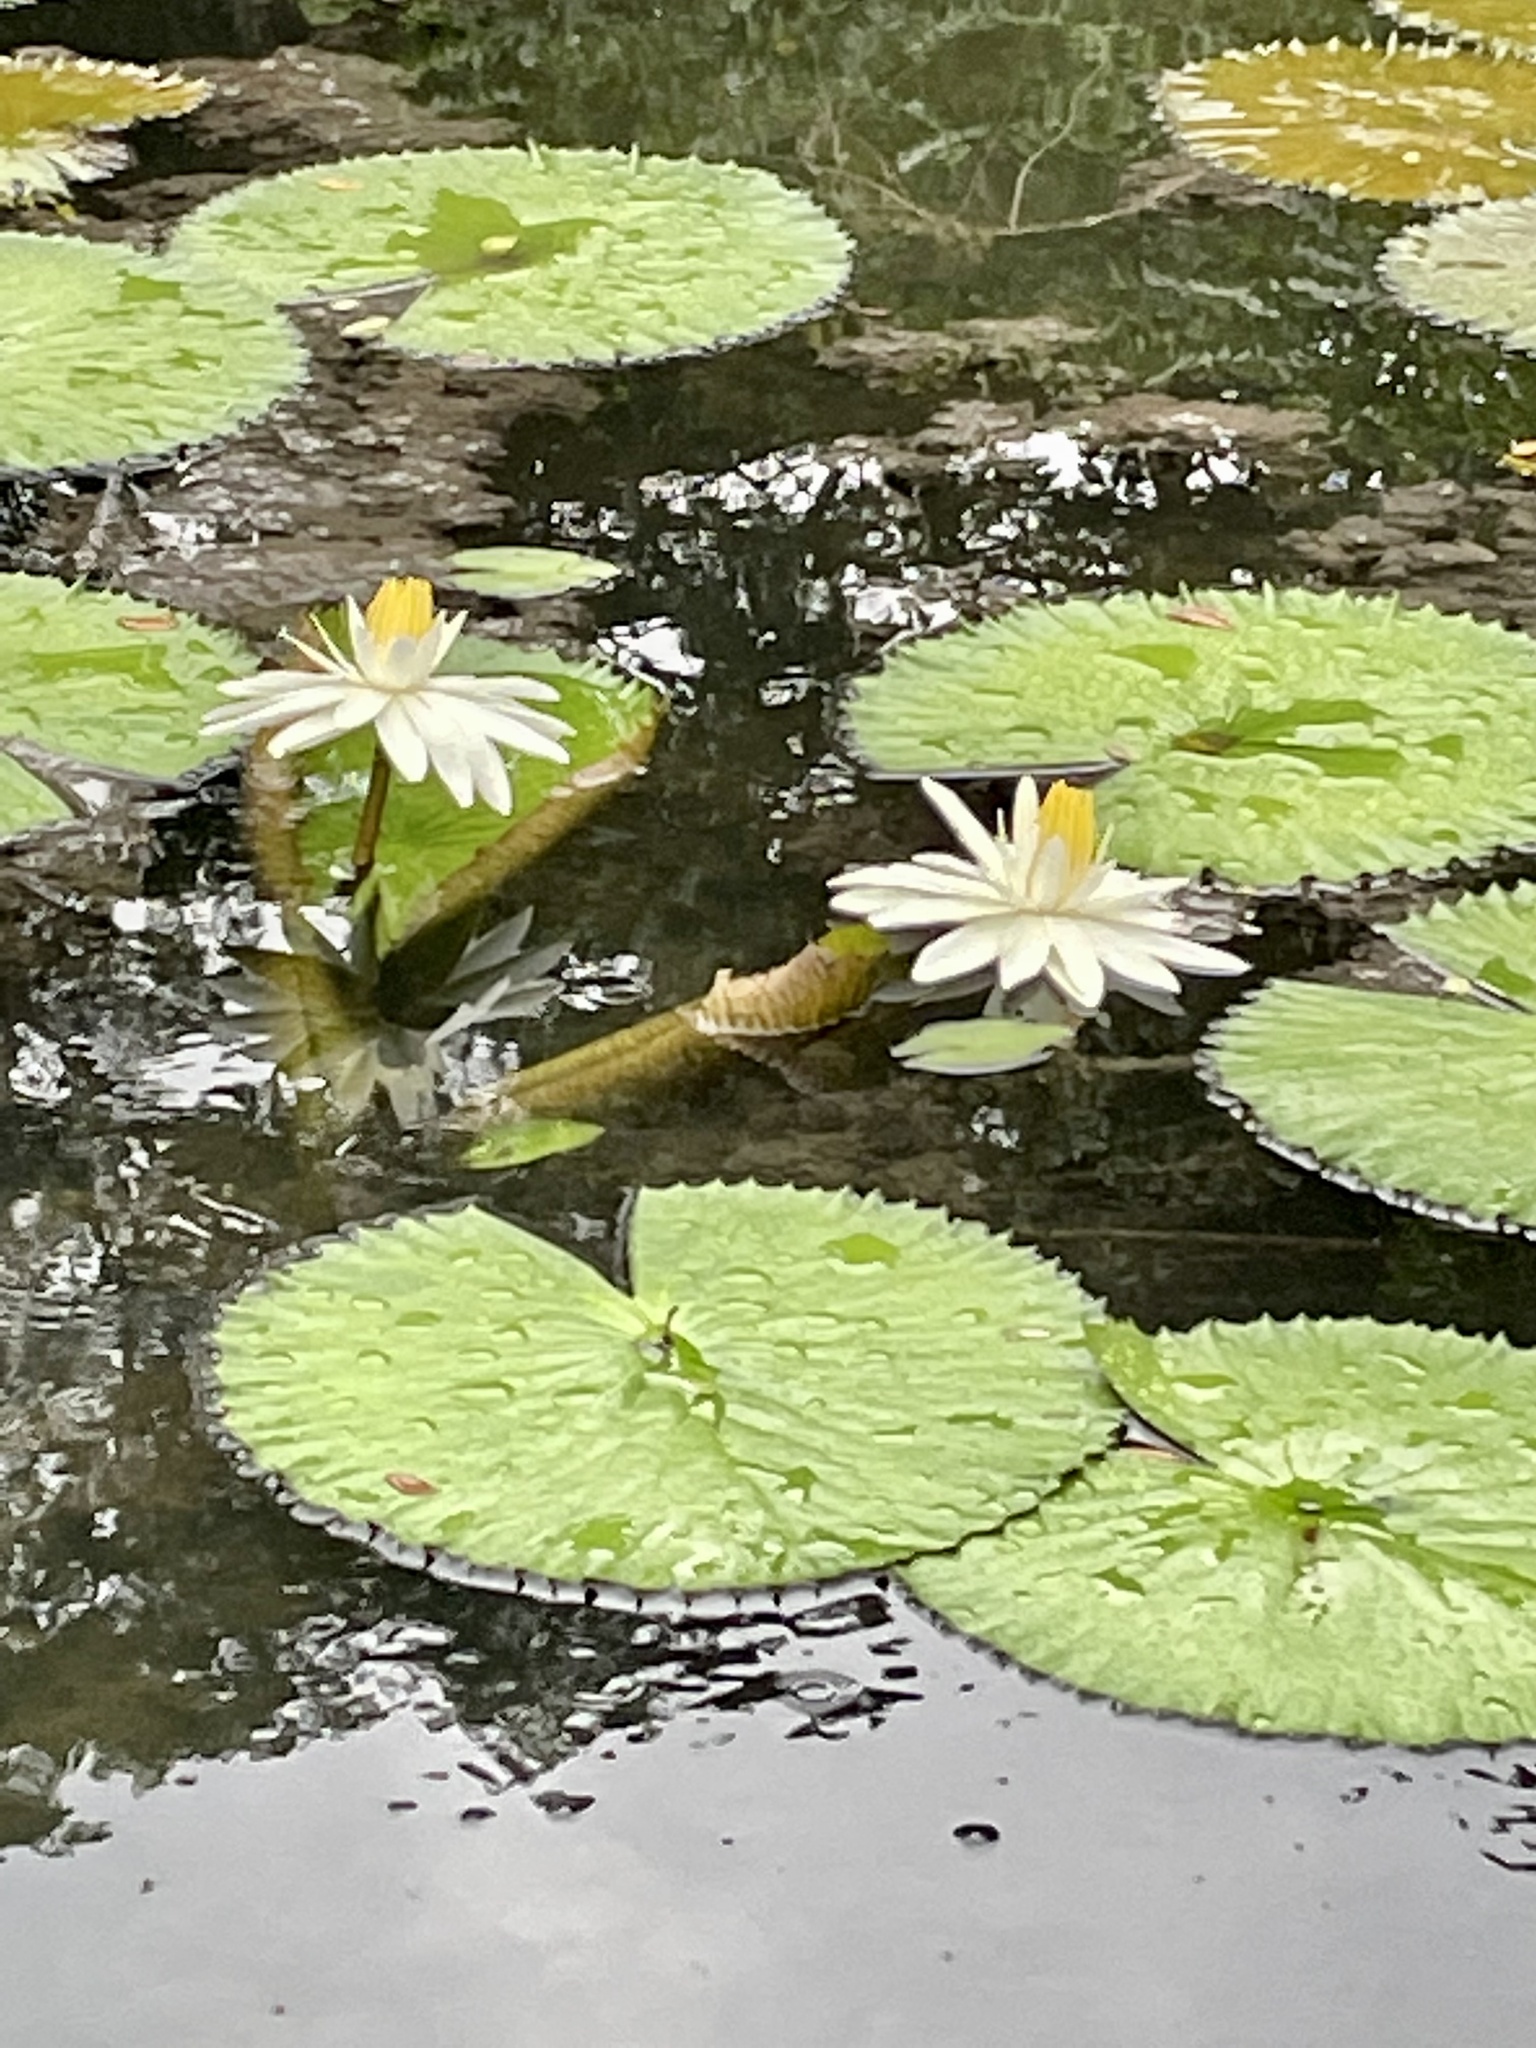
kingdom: Plantae
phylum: Tracheophyta
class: Magnoliopsida
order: Nymphaeales
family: Nymphaeaceae
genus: Nymphaea
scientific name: Nymphaea lotus
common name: White egyptian lotus
